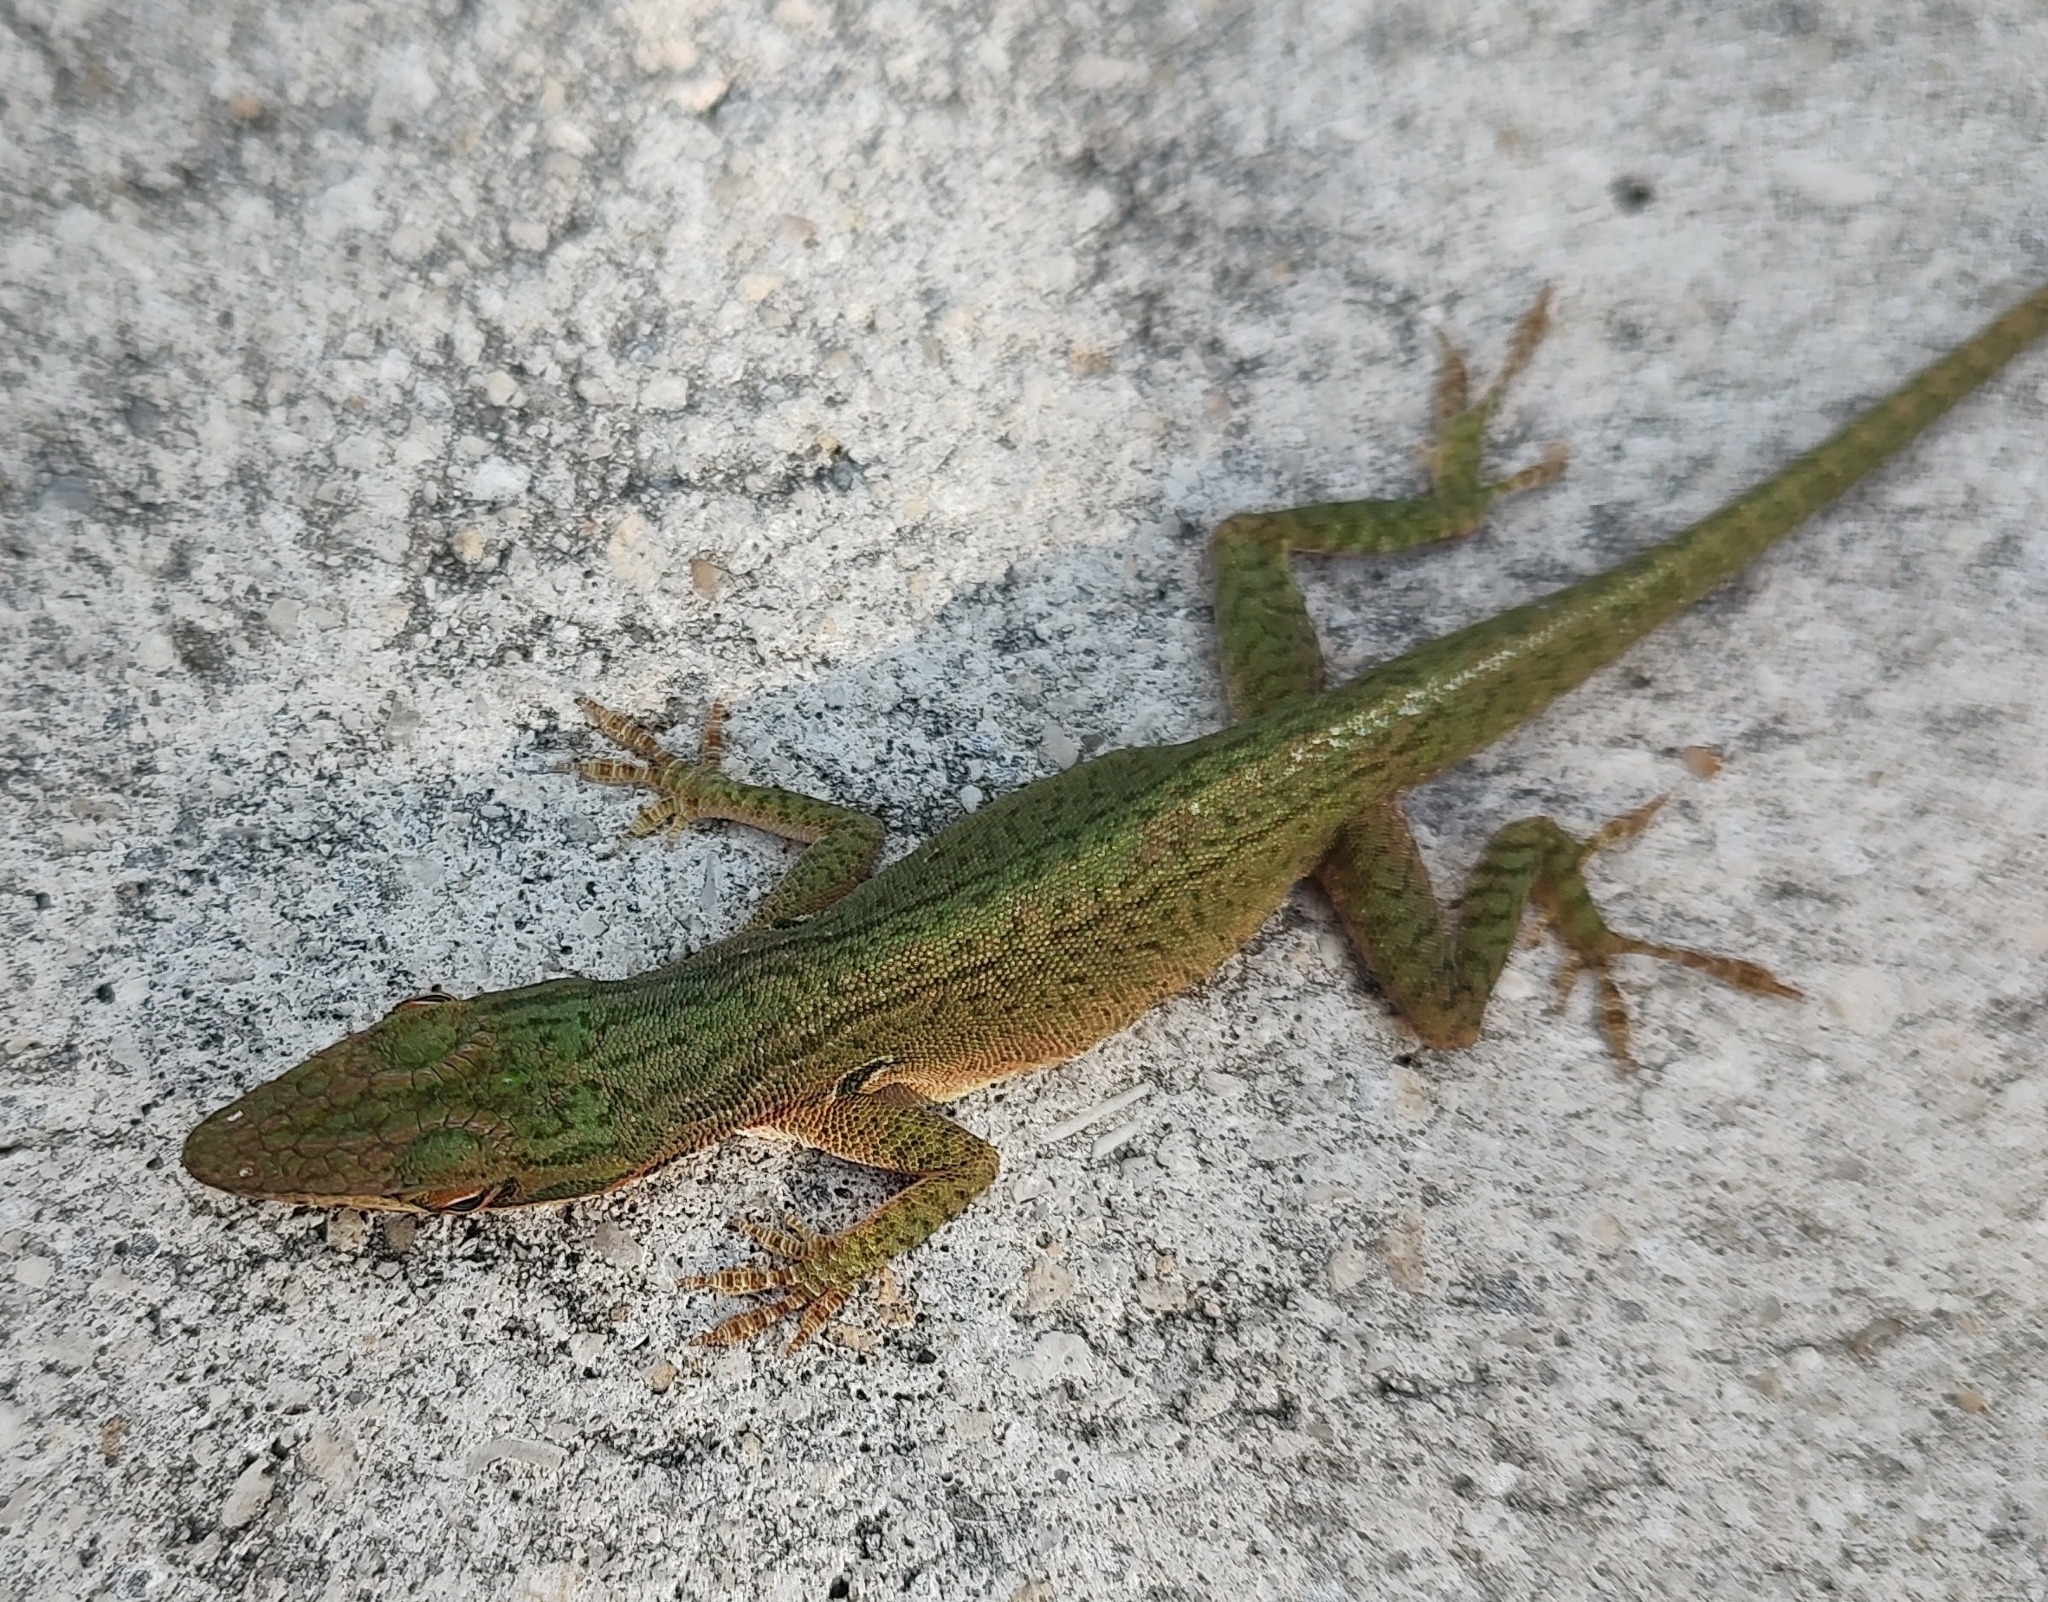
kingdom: Animalia
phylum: Chordata
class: Squamata
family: Dactyloidae
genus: Anolis
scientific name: Anolis carolinensis
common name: Green anole
